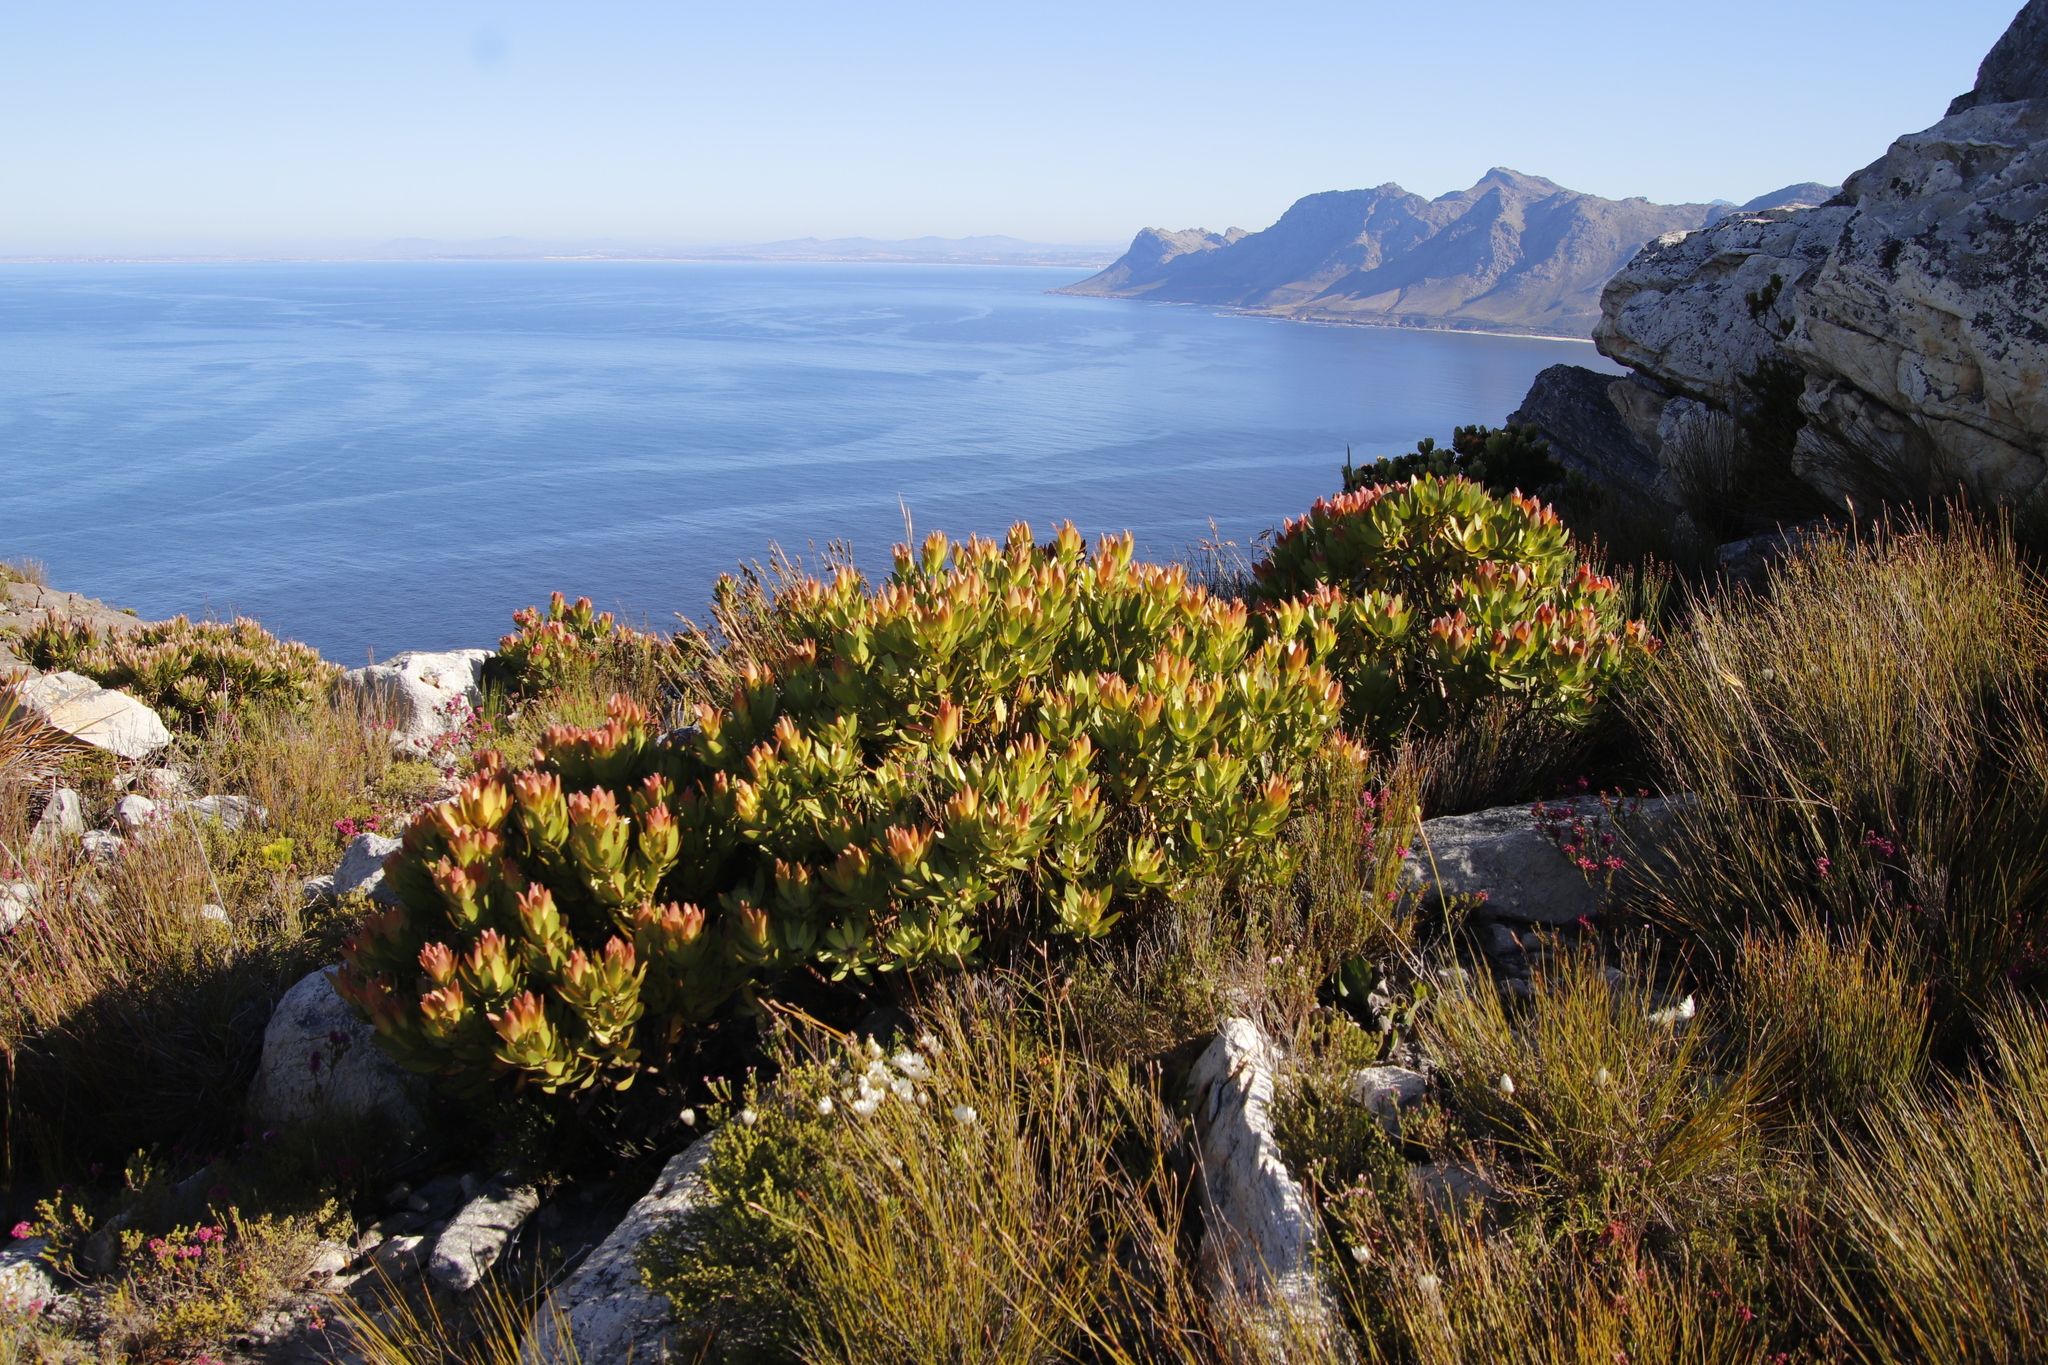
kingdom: Plantae
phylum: Tracheophyta
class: Magnoliopsida
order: Proteales
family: Proteaceae
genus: Leucadendron
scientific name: Leucadendron laureolum
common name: Golden sunshinebush
